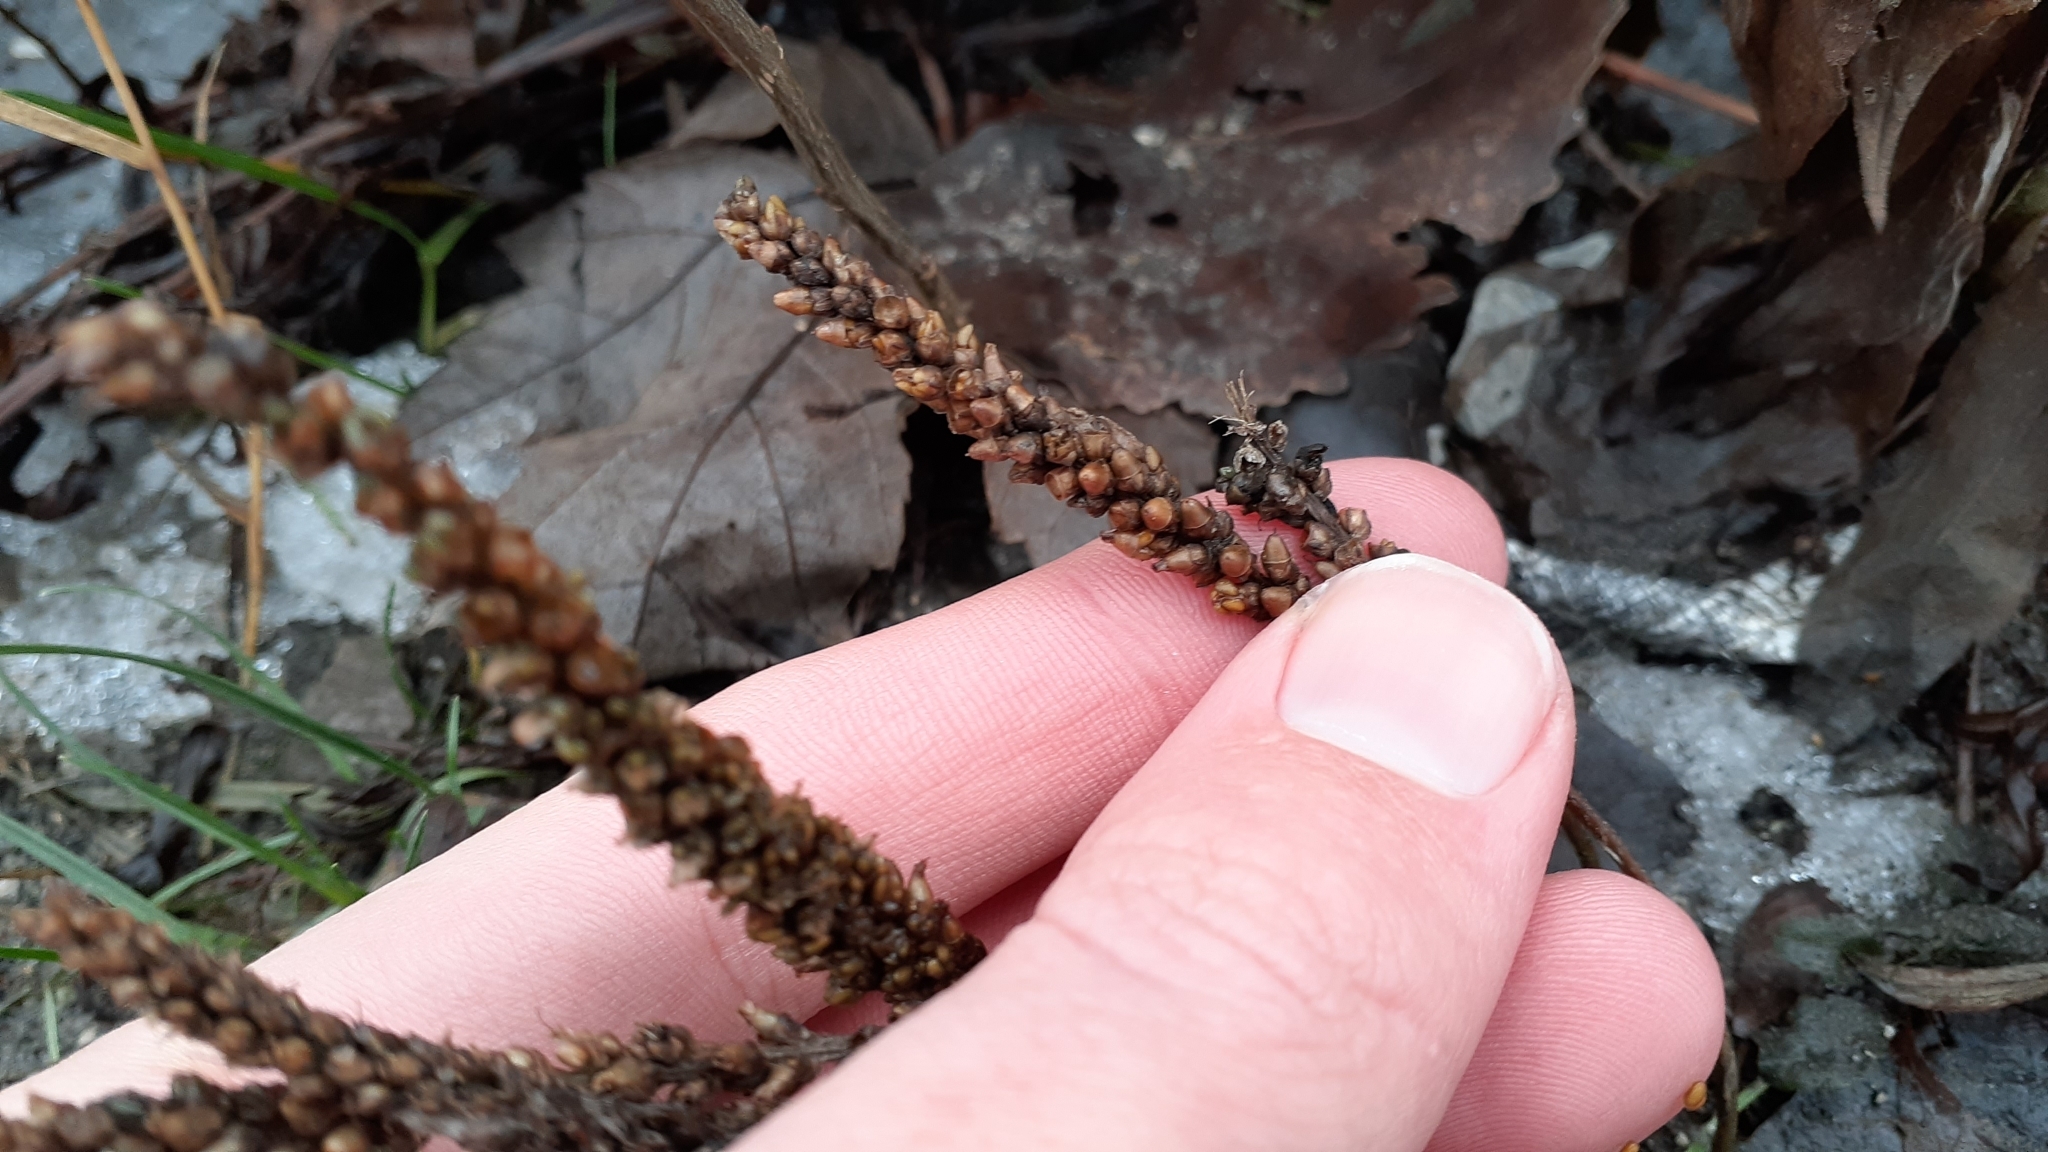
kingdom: Plantae
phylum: Tracheophyta
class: Magnoliopsida
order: Lamiales
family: Plantaginaceae
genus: Plantago
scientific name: Plantago major
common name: Common plantain
